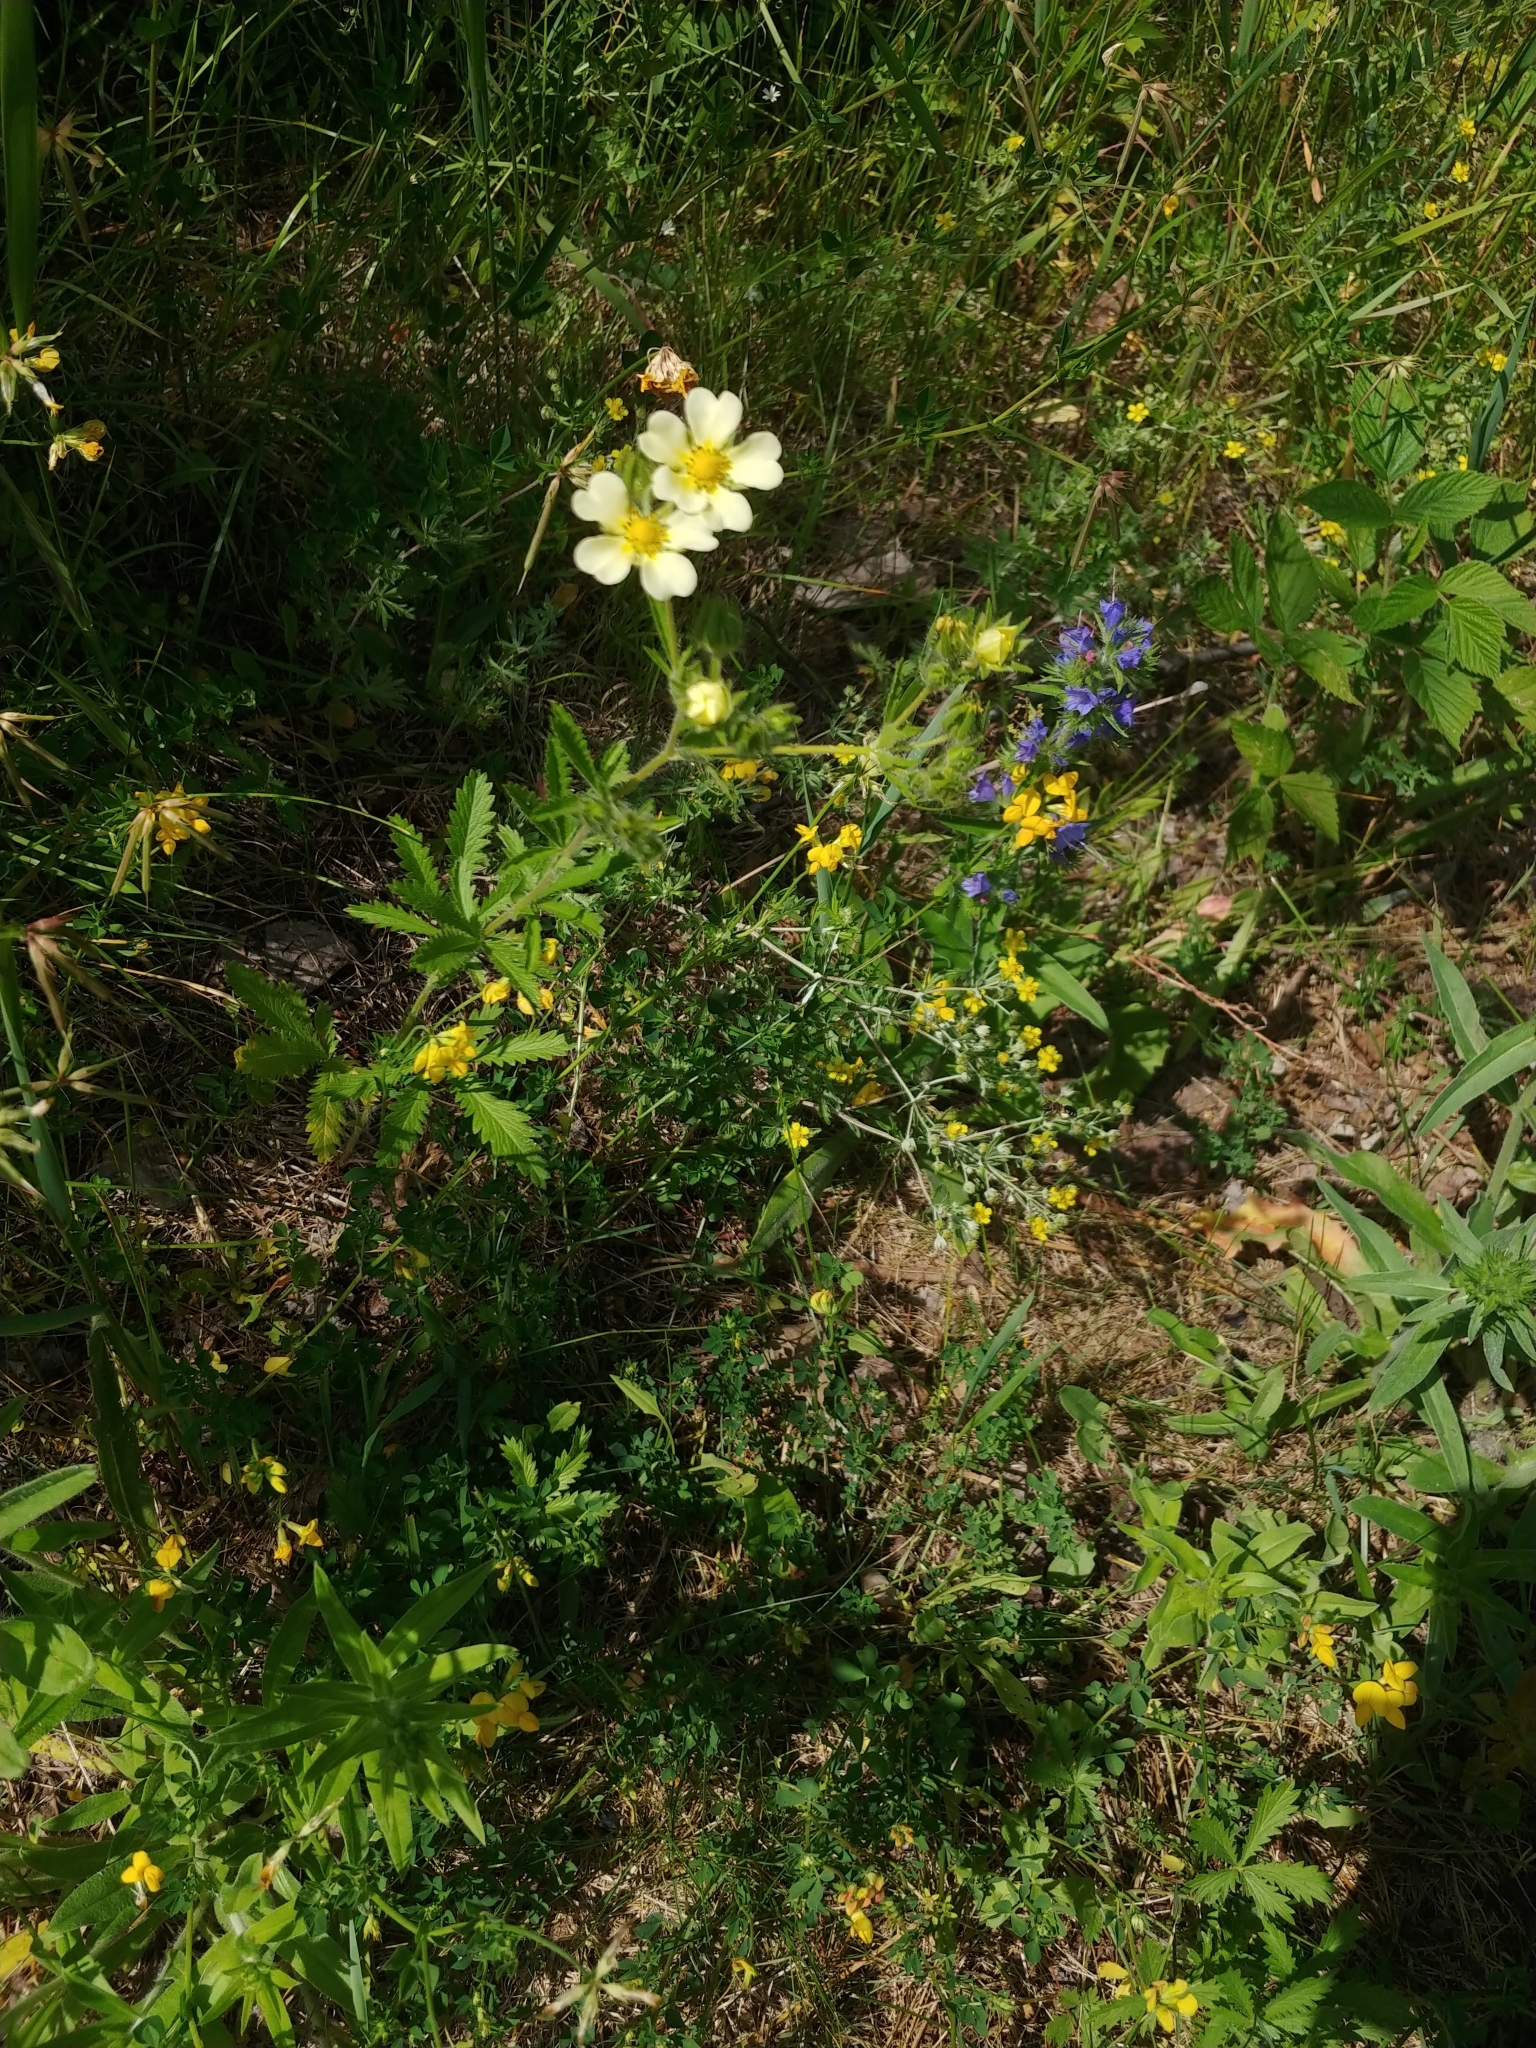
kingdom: Plantae
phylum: Tracheophyta
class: Magnoliopsida
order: Rosales
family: Rosaceae
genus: Potentilla
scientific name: Potentilla recta
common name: Sulphur cinquefoil
